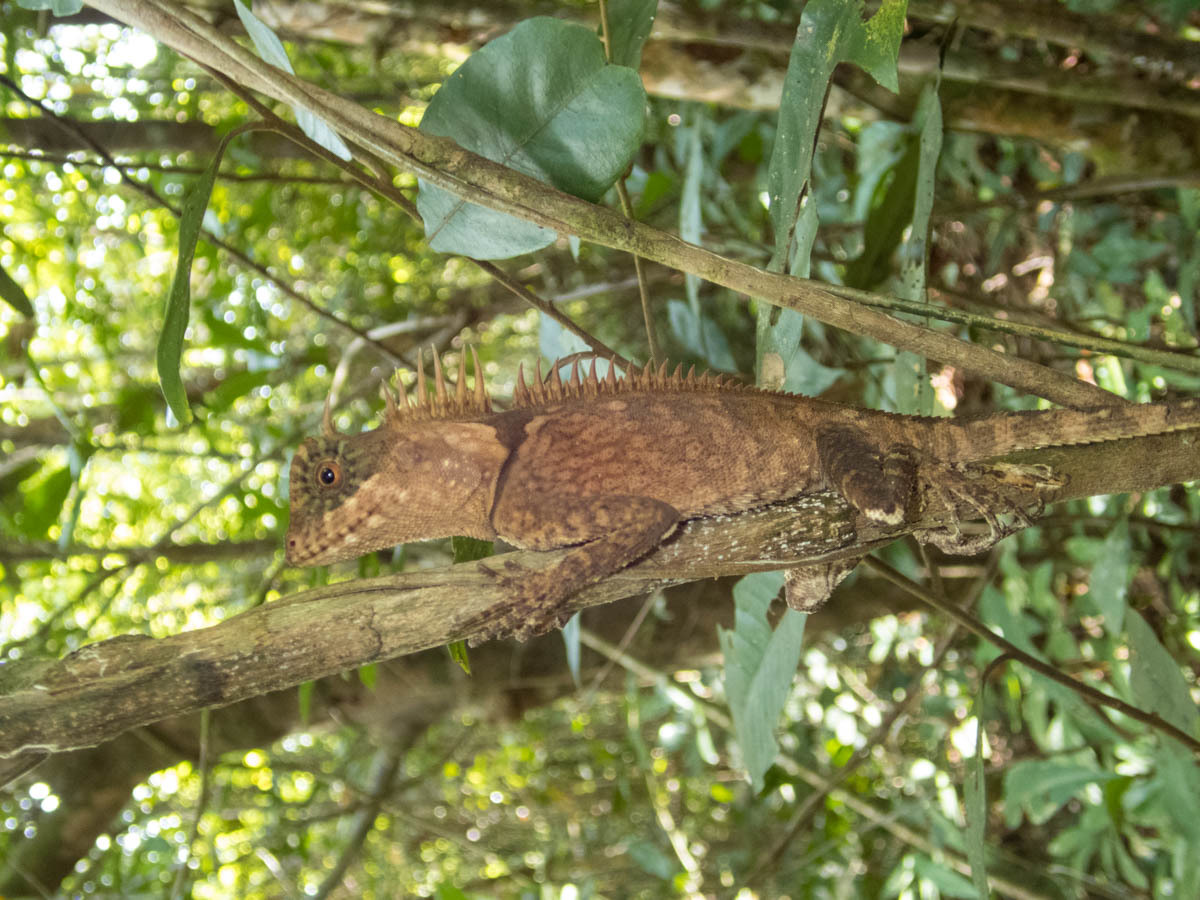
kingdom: Animalia
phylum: Chordata
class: Squamata
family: Agamidae
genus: Acanthosaura
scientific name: Acanthosaura cardamomensis
